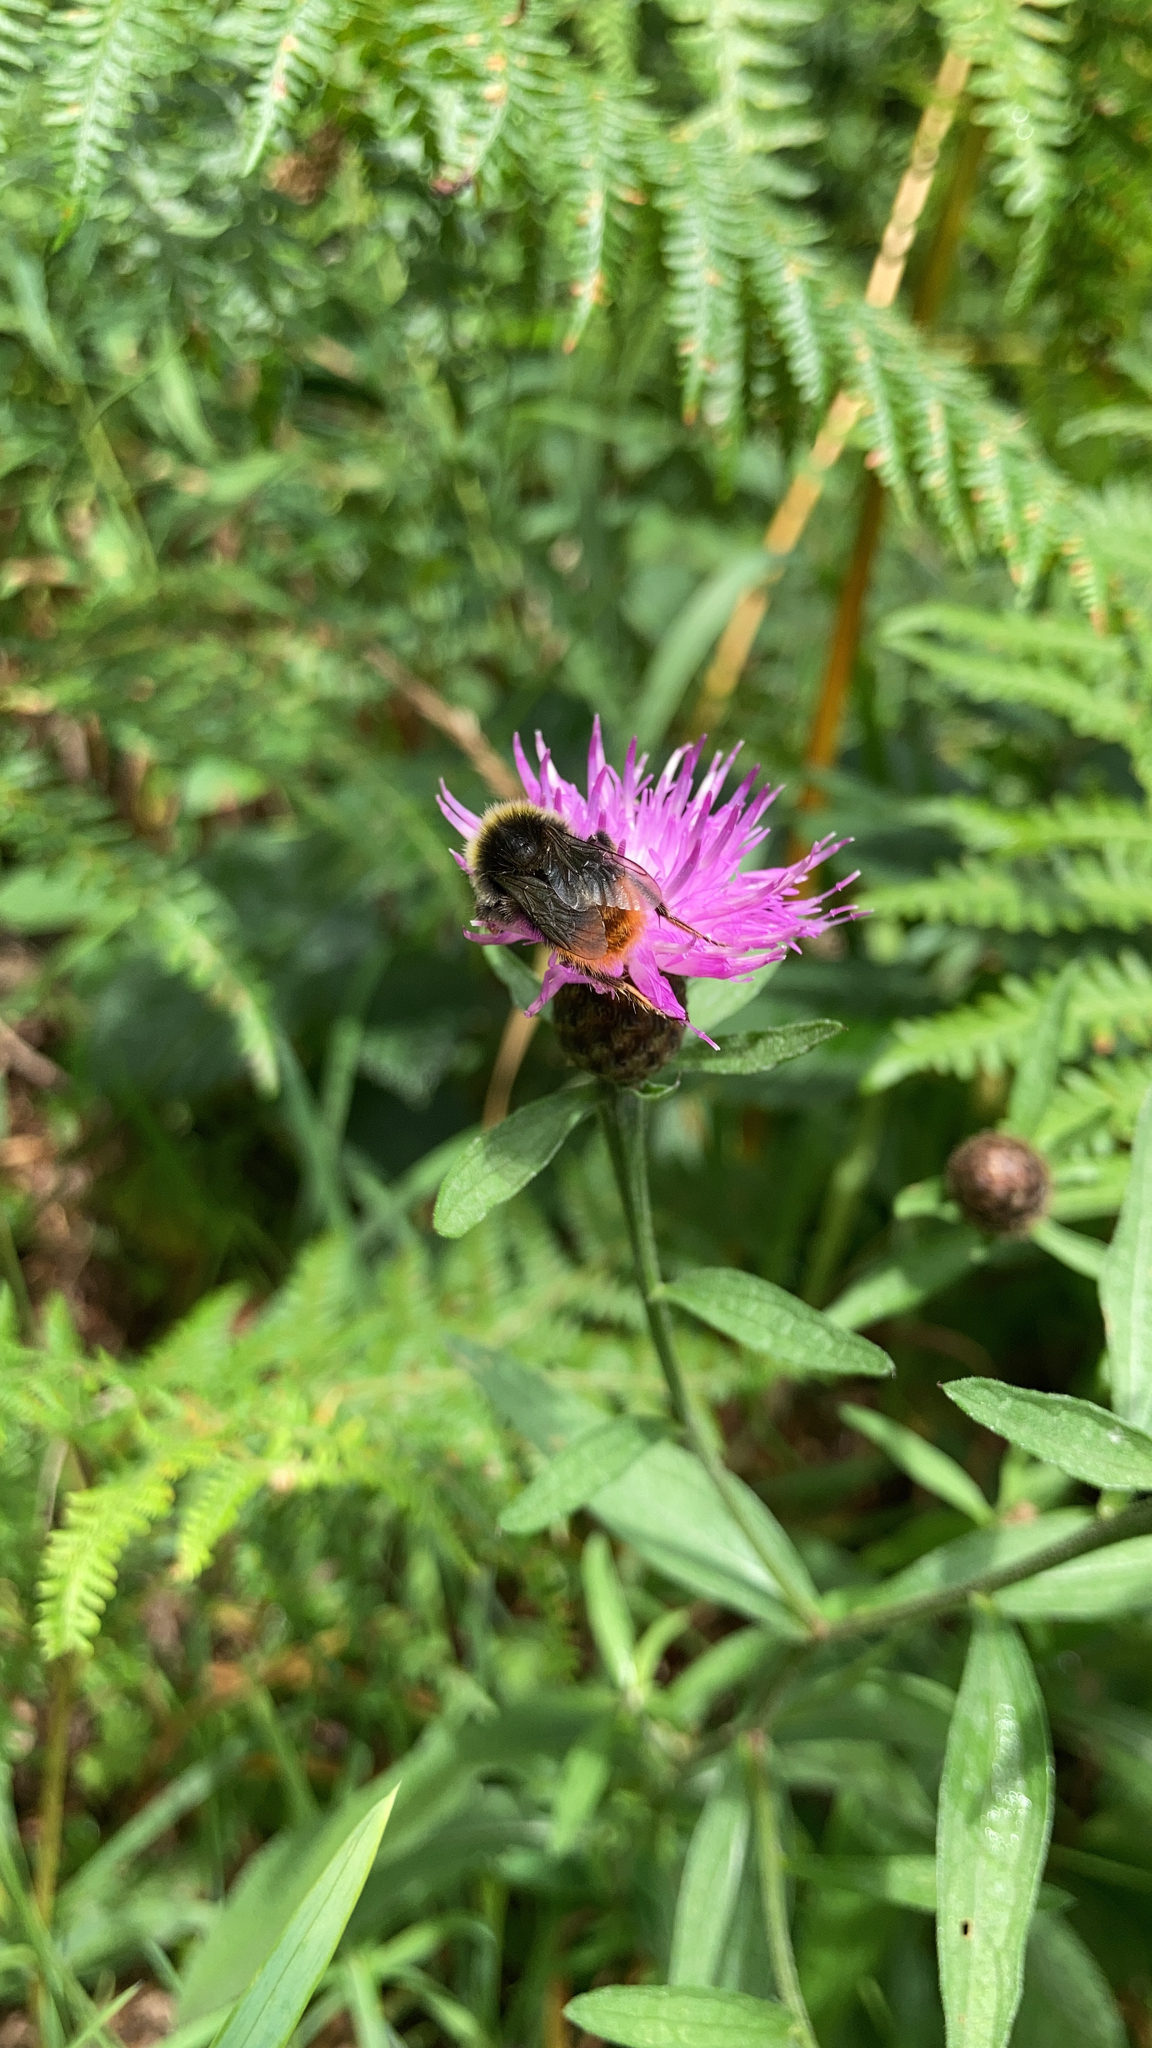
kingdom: Animalia
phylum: Arthropoda
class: Insecta
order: Hymenoptera
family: Apidae
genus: Bombus
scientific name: Bombus lapidarius
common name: Large red-tailed humble-bee
